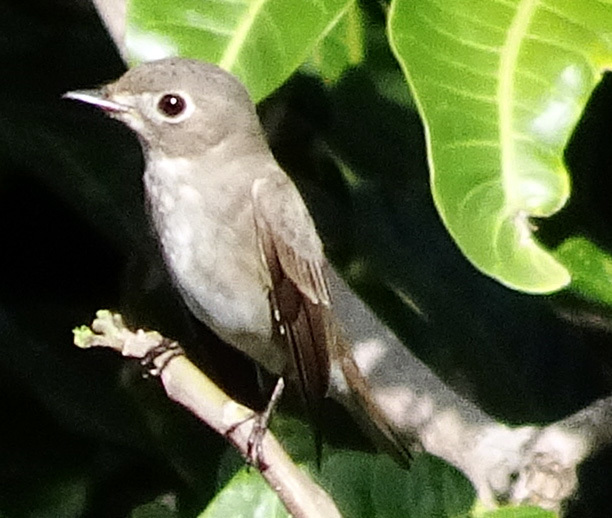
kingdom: Animalia
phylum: Chordata
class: Aves
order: Passeriformes
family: Muscicapidae
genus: Muscicapa
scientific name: Muscicapa latirostris
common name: Asian brown flycatcher
